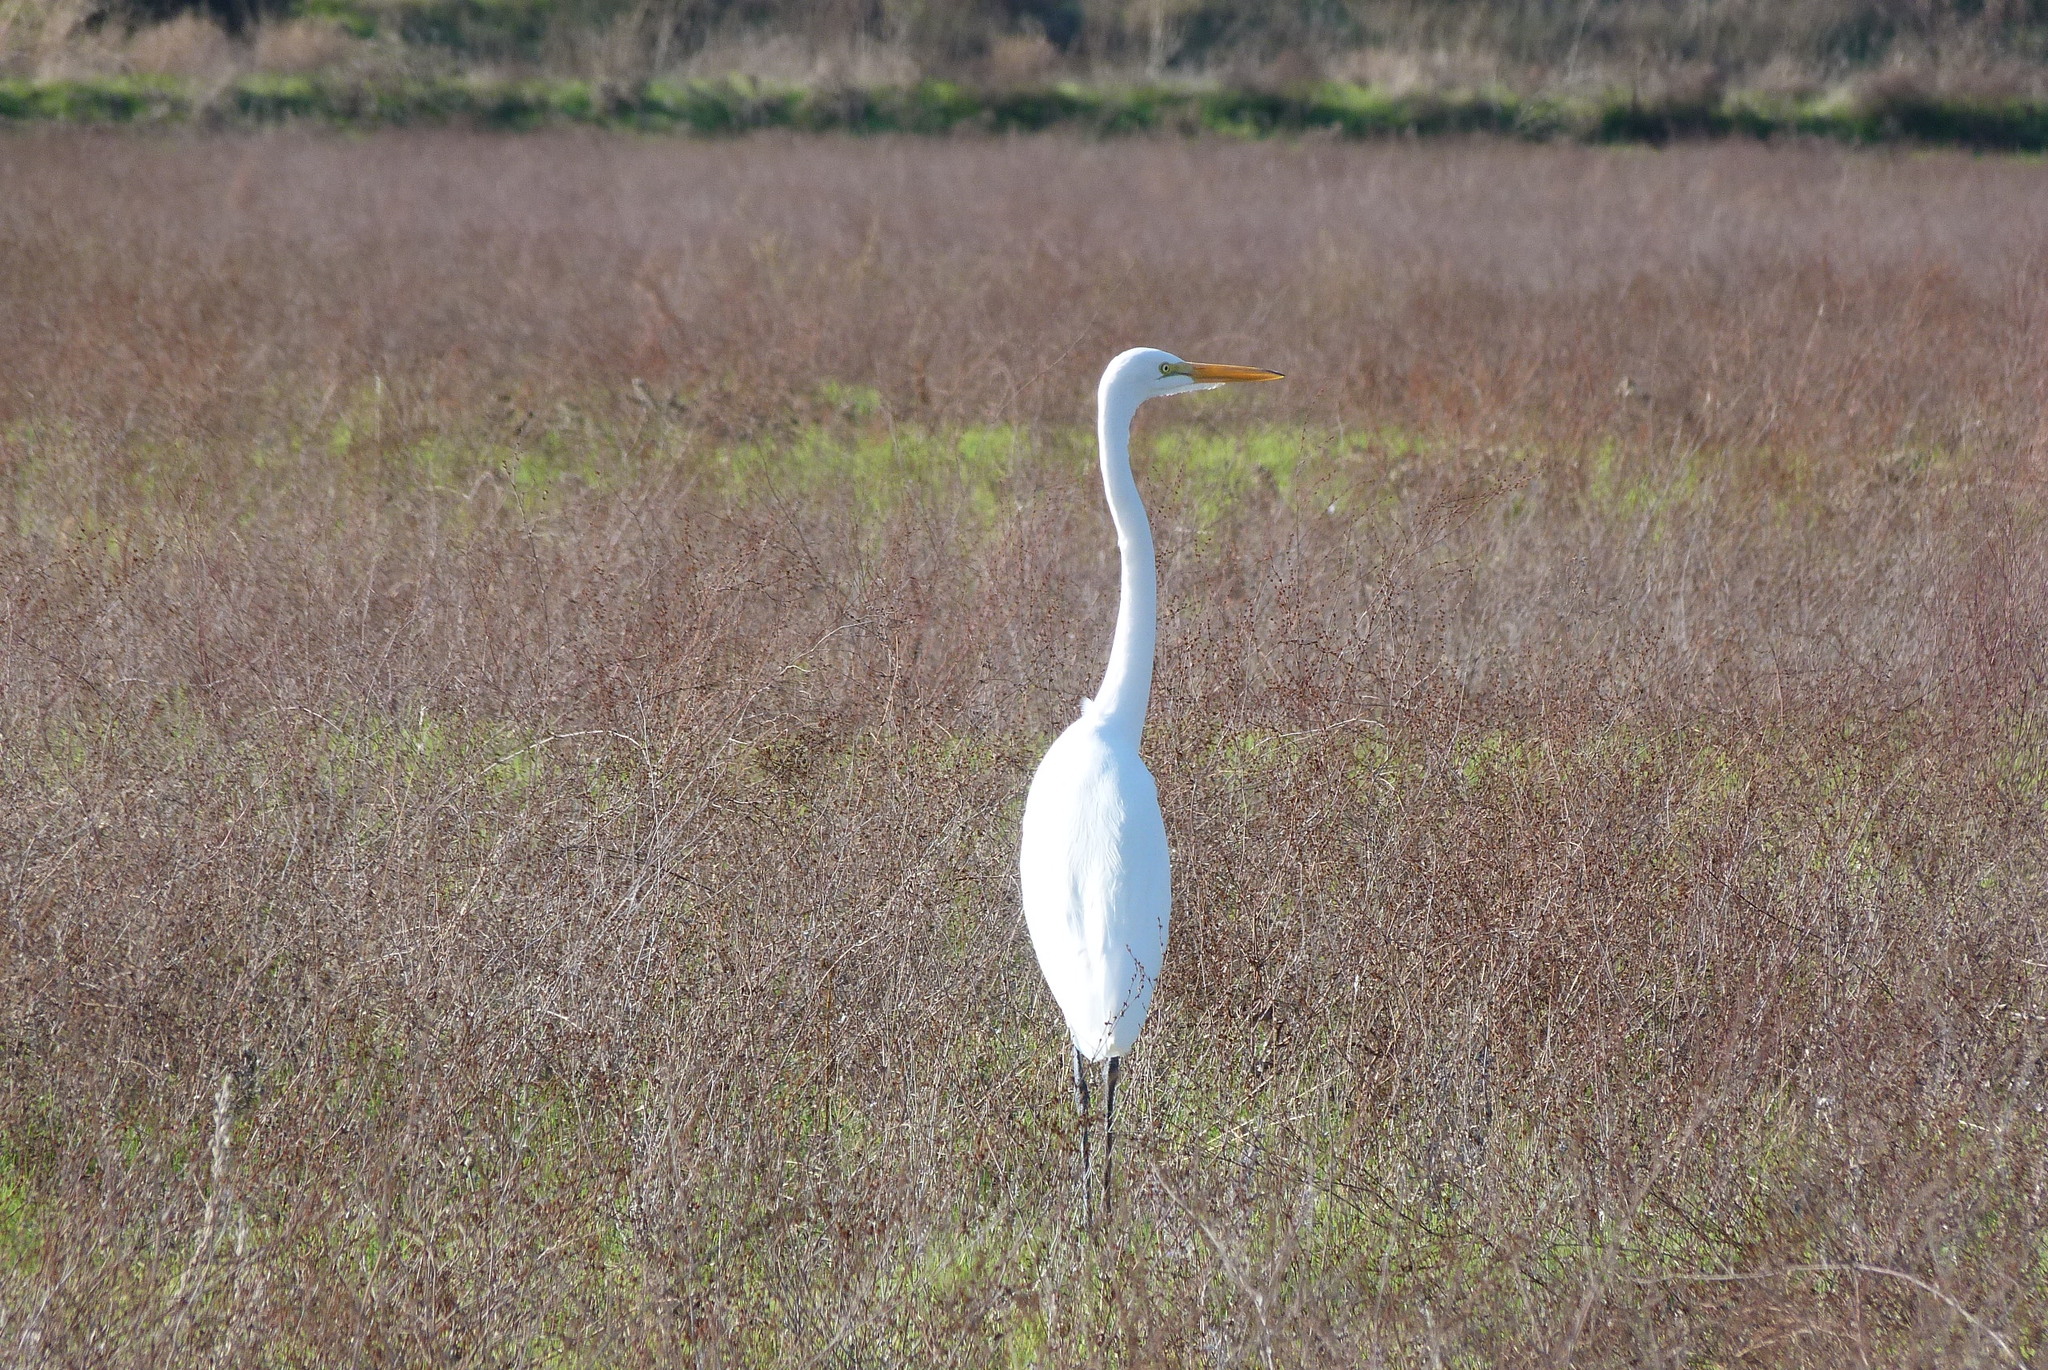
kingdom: Animalia
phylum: Chordata
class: Aves
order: Pelecaniformes
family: Ardeidae
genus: Ardea
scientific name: Ardea alba
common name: Great egret
